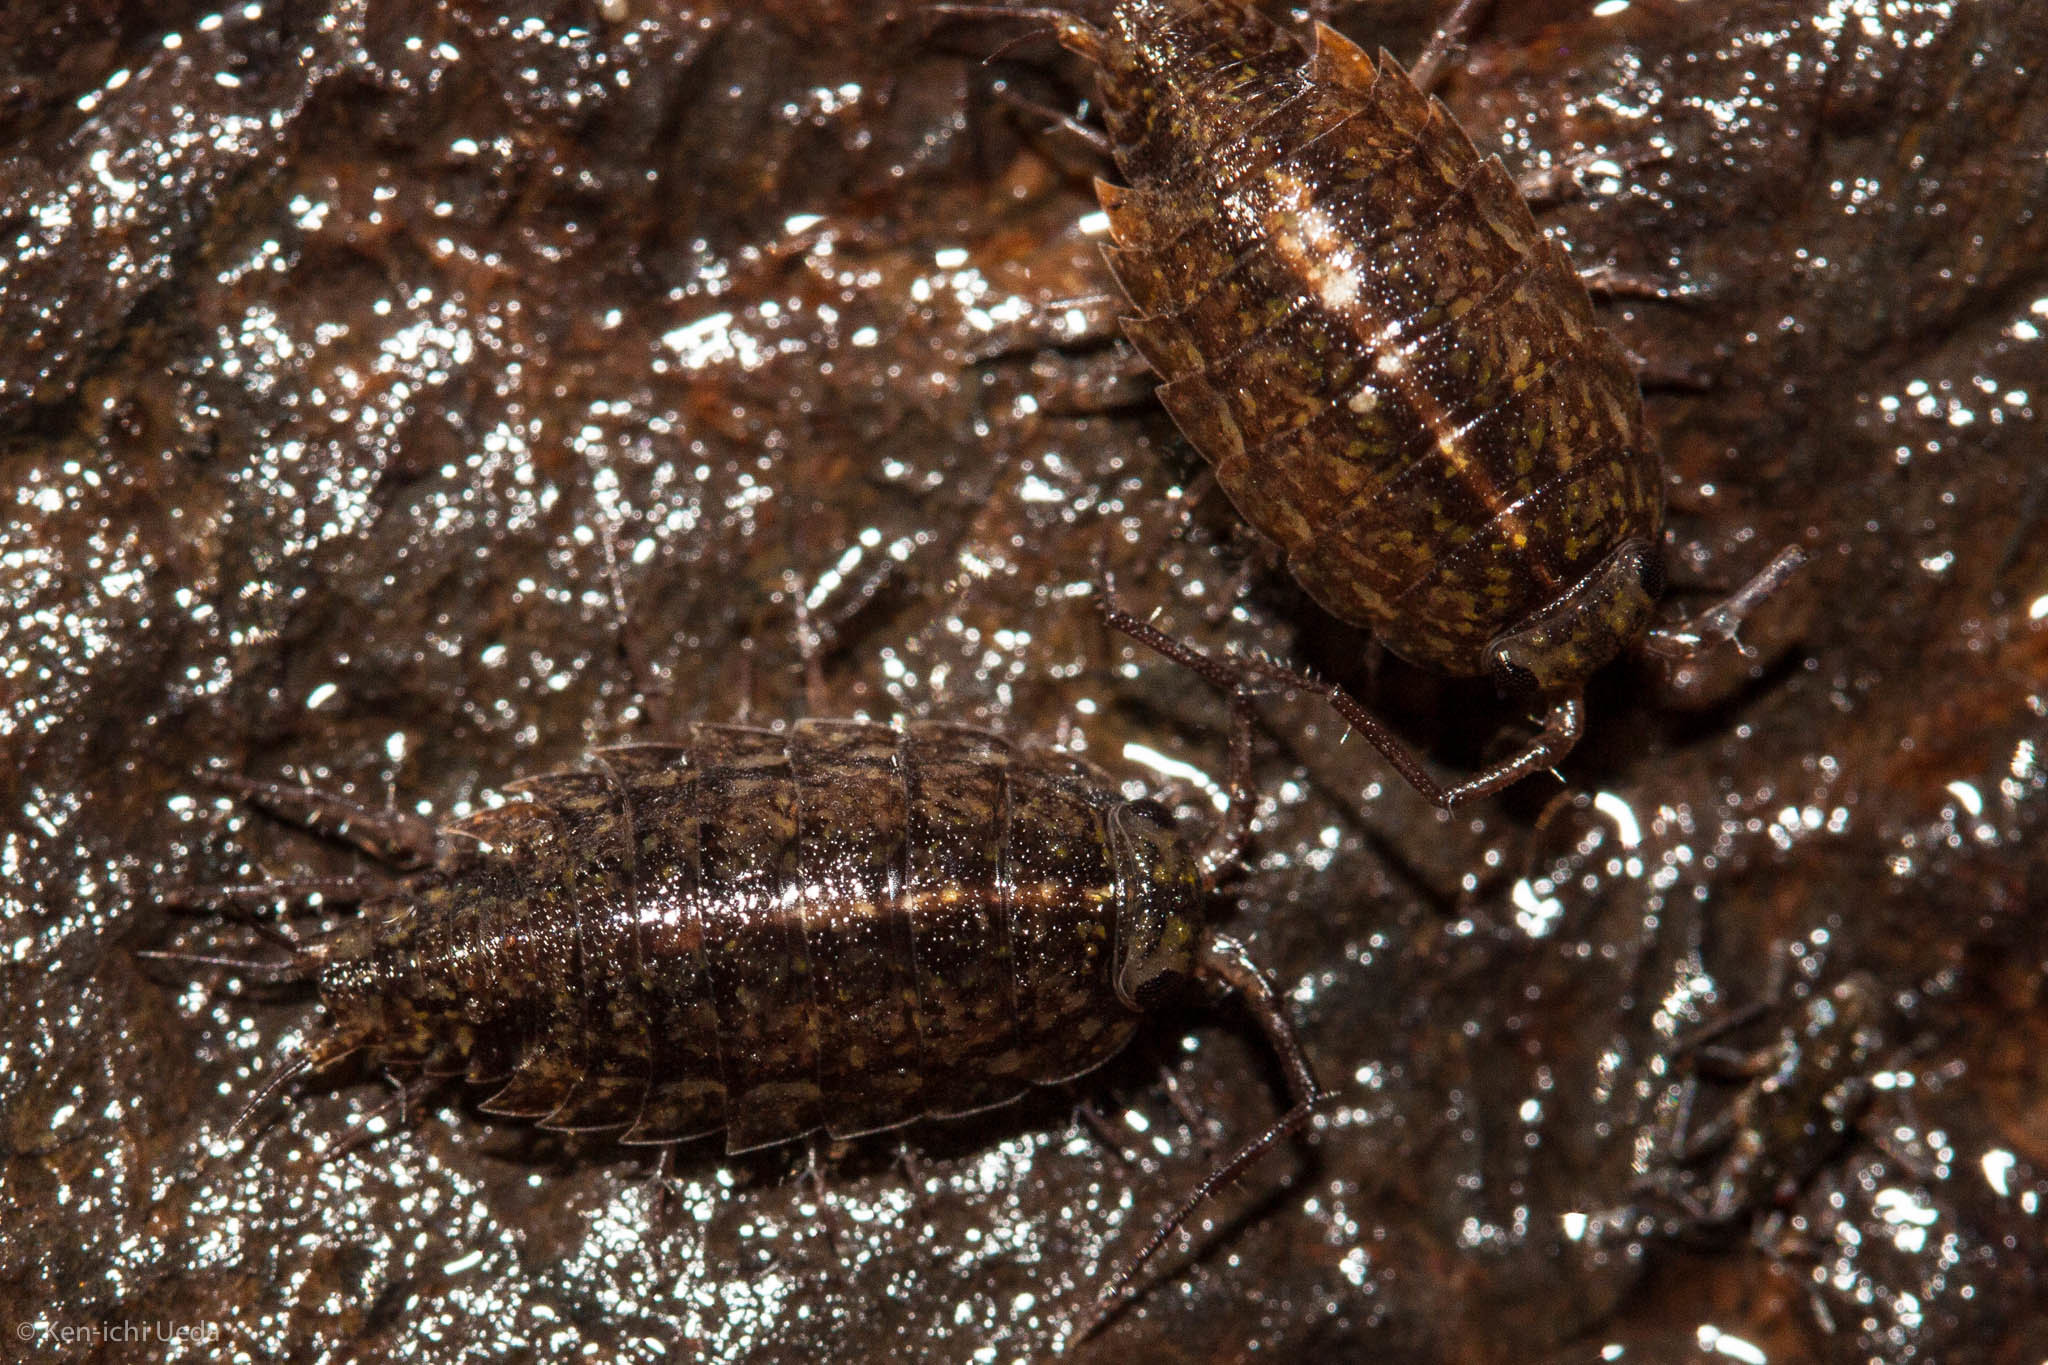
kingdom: Animalia
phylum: Arthropoda
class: Malacostraca
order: Isopoda
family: Ligiidae
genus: Ligidium
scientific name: Ligidium latum
